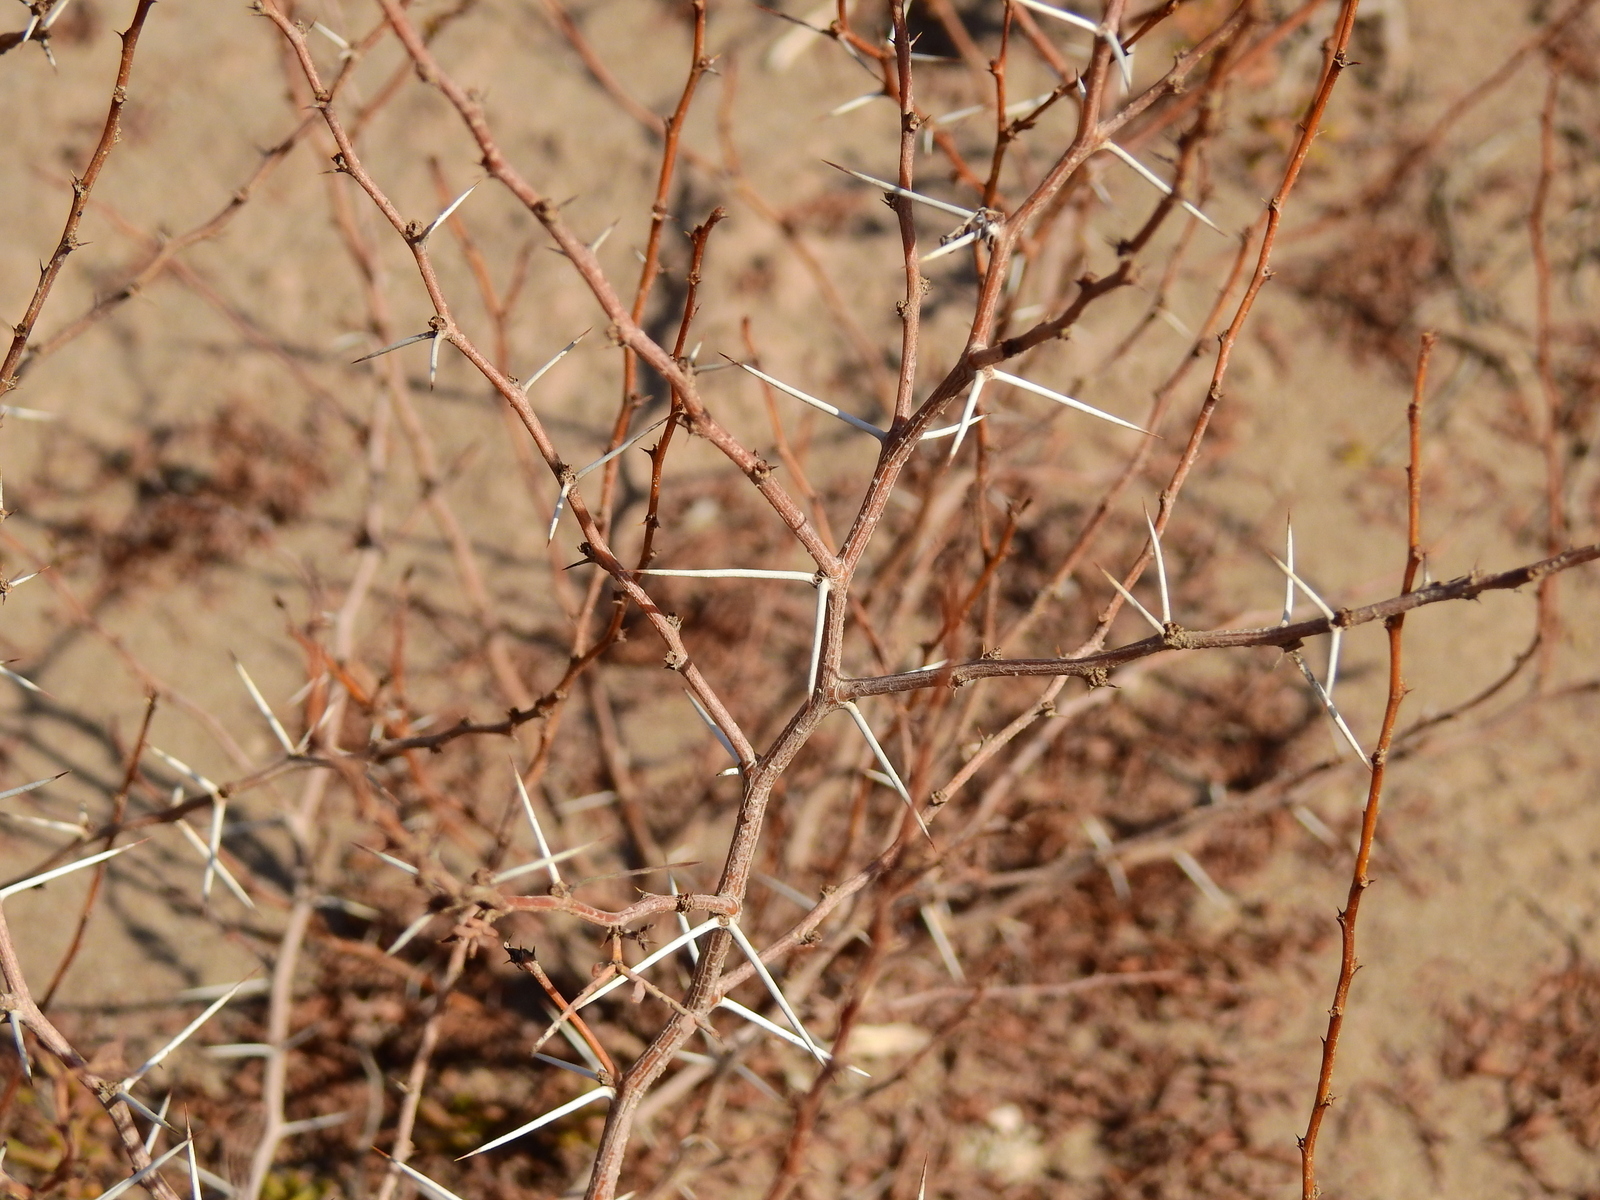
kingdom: Plantae
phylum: Tracheophyta
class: Magnoliopsida
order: Fabales
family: Fabaceae
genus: Prosopis
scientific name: Prosopis strombulifera
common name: Creeping mesquite
